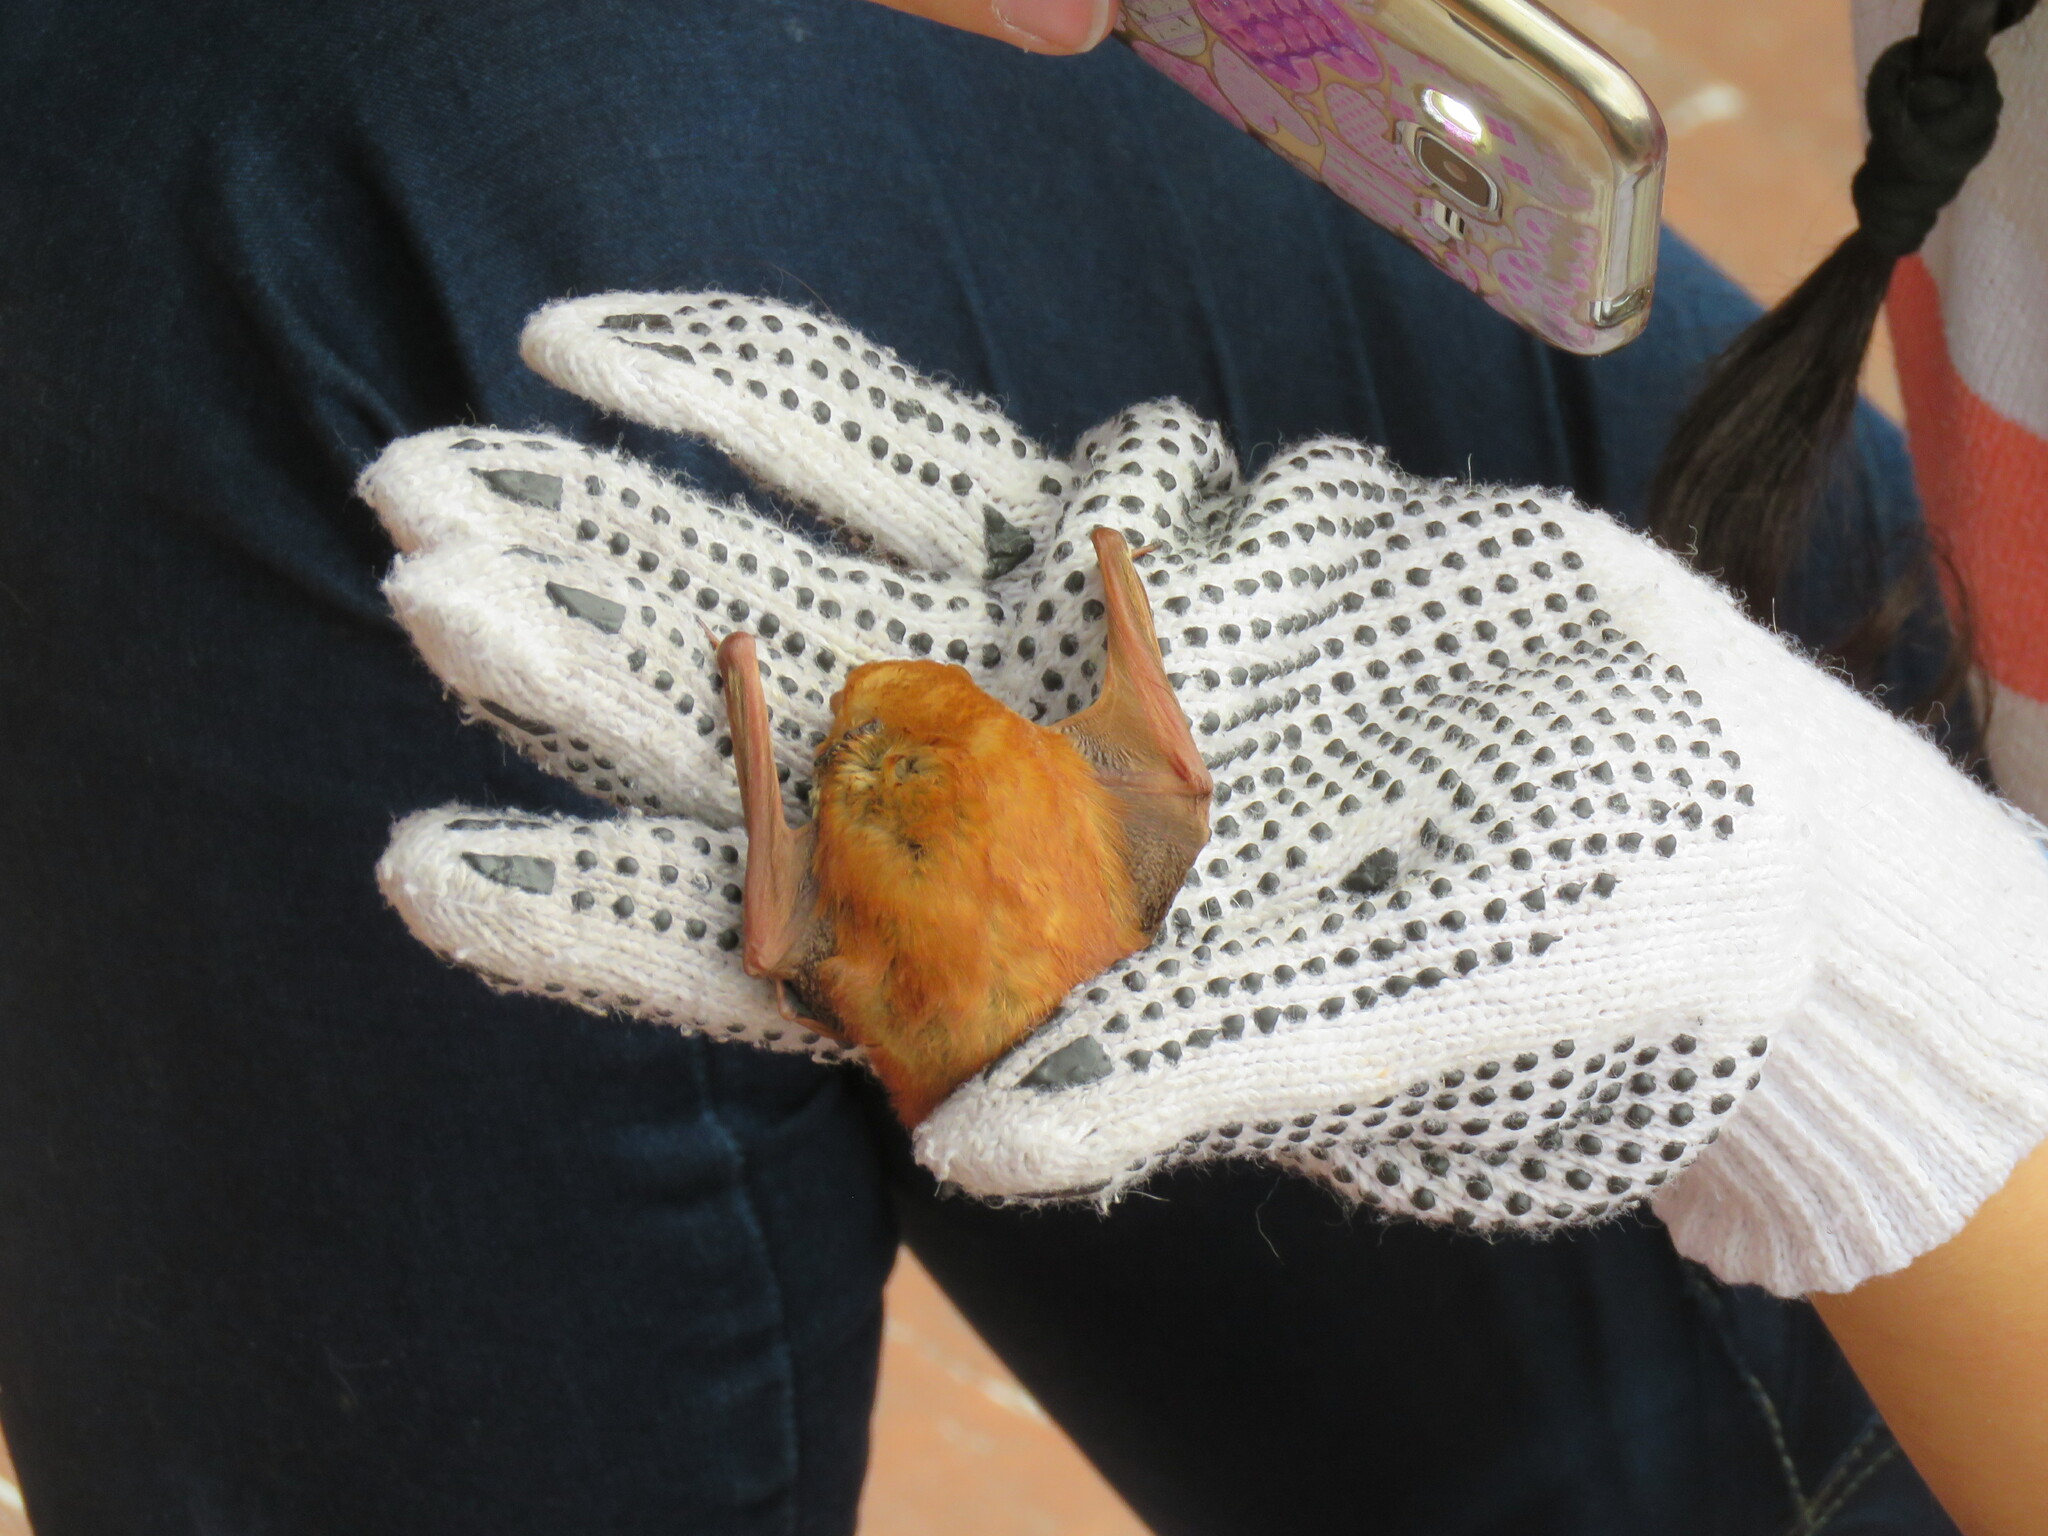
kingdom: Animalia
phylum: Chordata
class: Mammalia
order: Chiroptera
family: Vespertilionidae
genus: Lasiurus
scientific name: Lasiurus blossevillii
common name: Southern red bat
